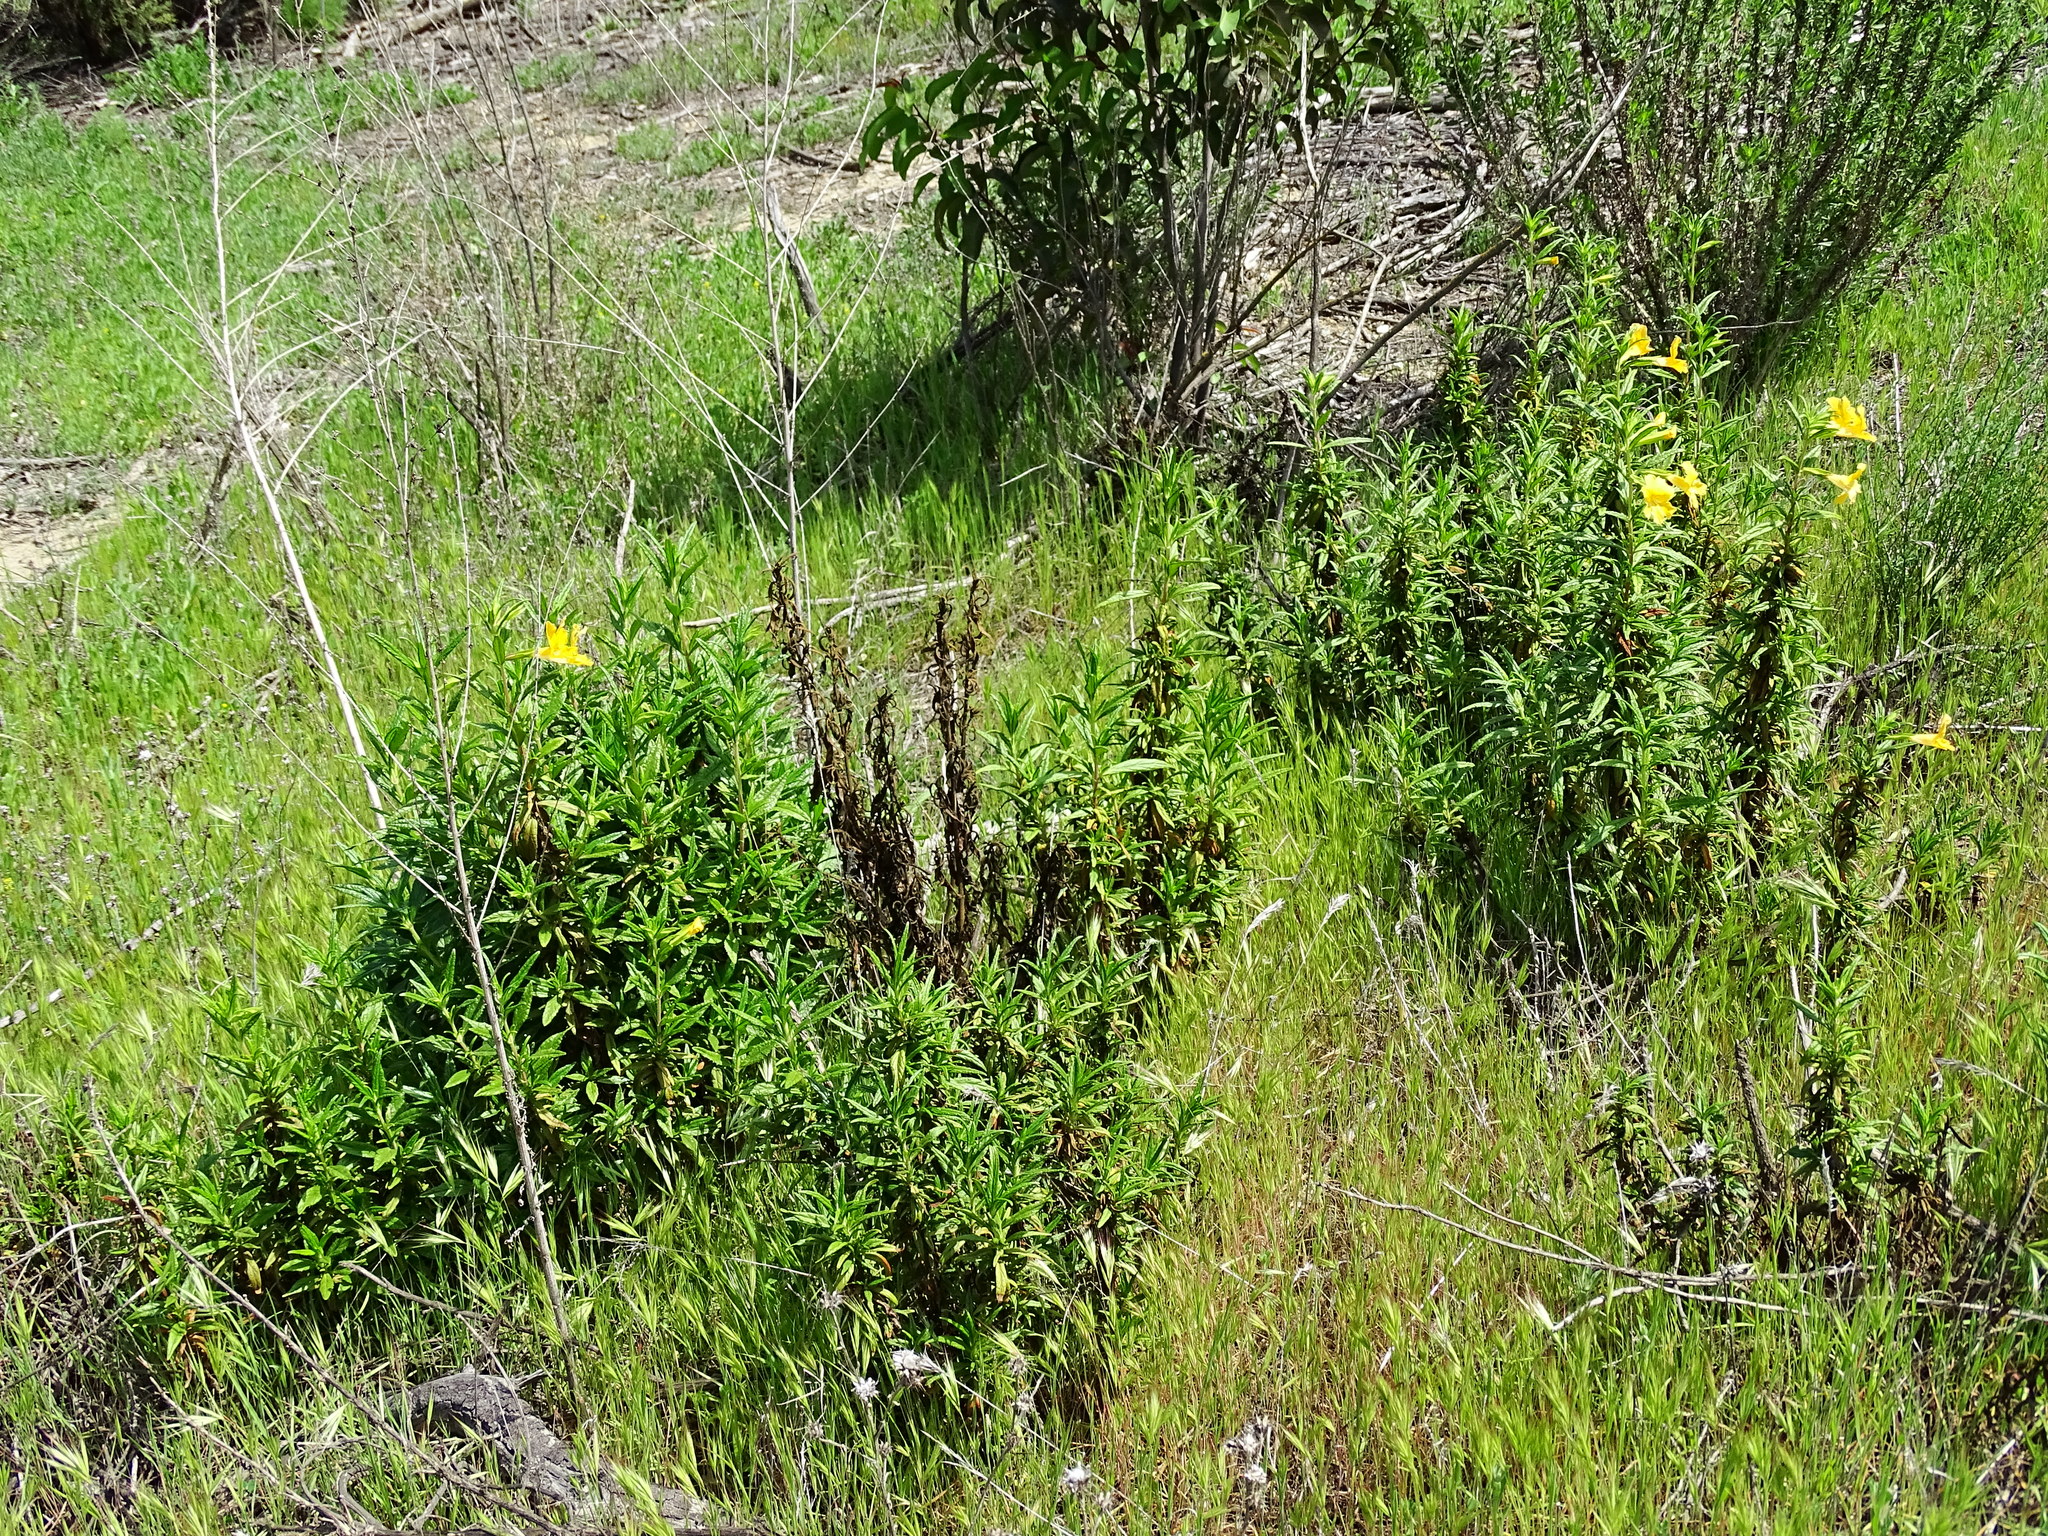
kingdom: Plantae
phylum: Tracheophyta
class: Magnoliopsida
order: Lamiales
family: Phrymaceae
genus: Diplacus
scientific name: Diplacus longiflorus
